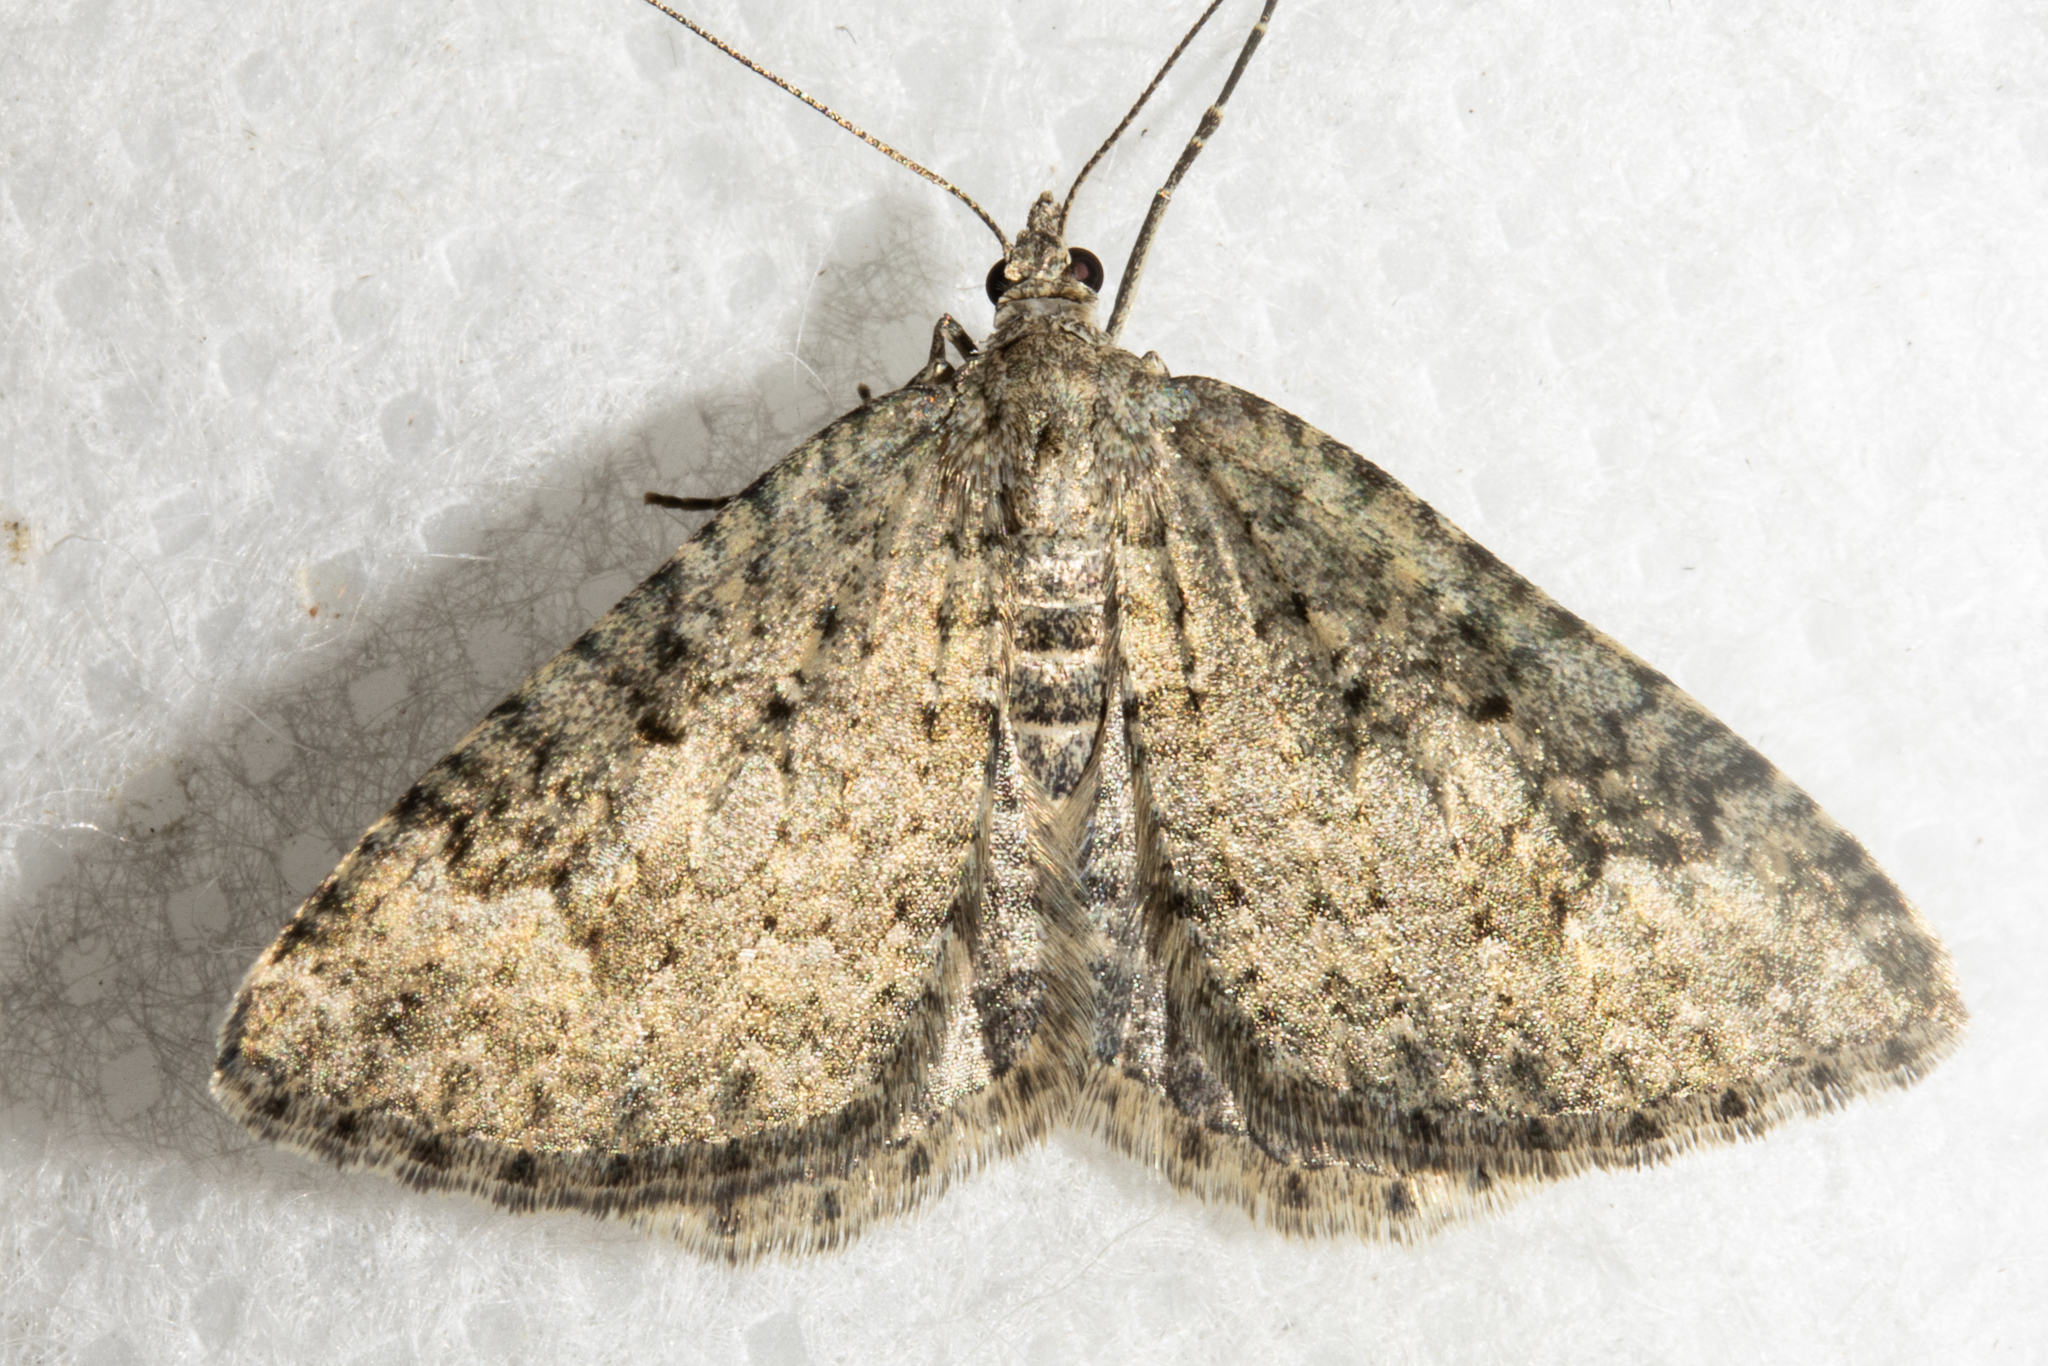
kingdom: Animalia
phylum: Arthropoda
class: Insecta
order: Lepidoptera
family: Geometridae
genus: Helastia
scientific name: Helastia corcularia
